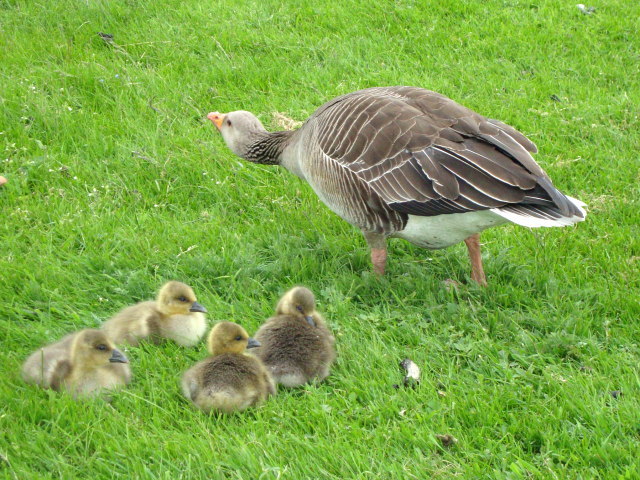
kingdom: Animalia
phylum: Chordata
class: Aves
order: Anseriformes
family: Anatidae
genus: Anser
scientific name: Anser anser
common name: Greylag goose
